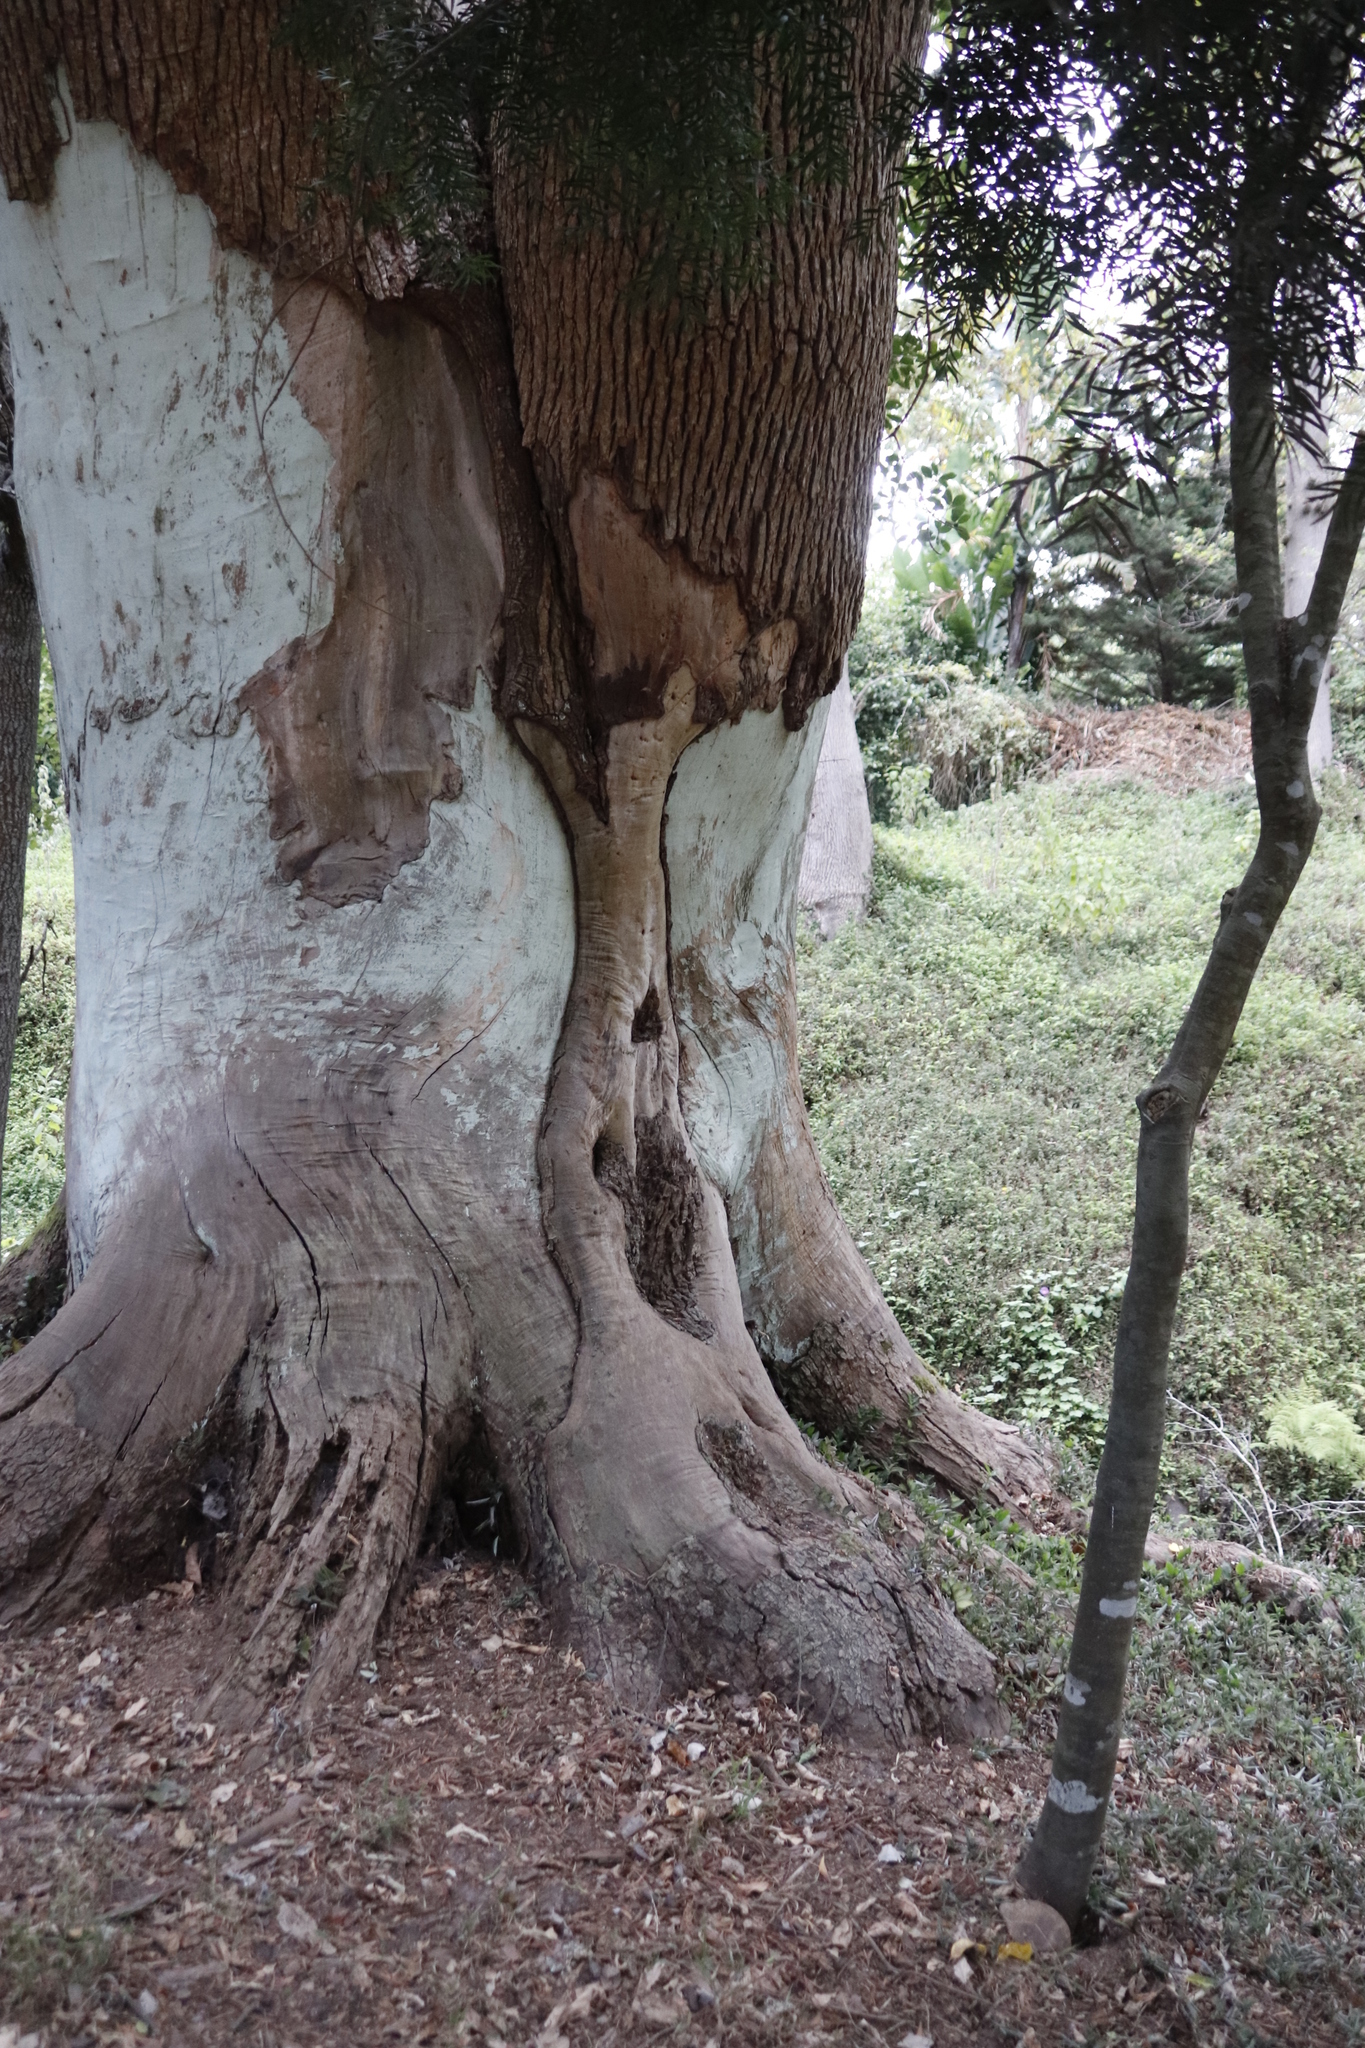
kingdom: Plantae
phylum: Tracheophyta
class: Magnoliopsida
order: Laurales
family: Lauraceae
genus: Cinnamomum
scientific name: Cinnamomum camphora
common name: Camphortree
